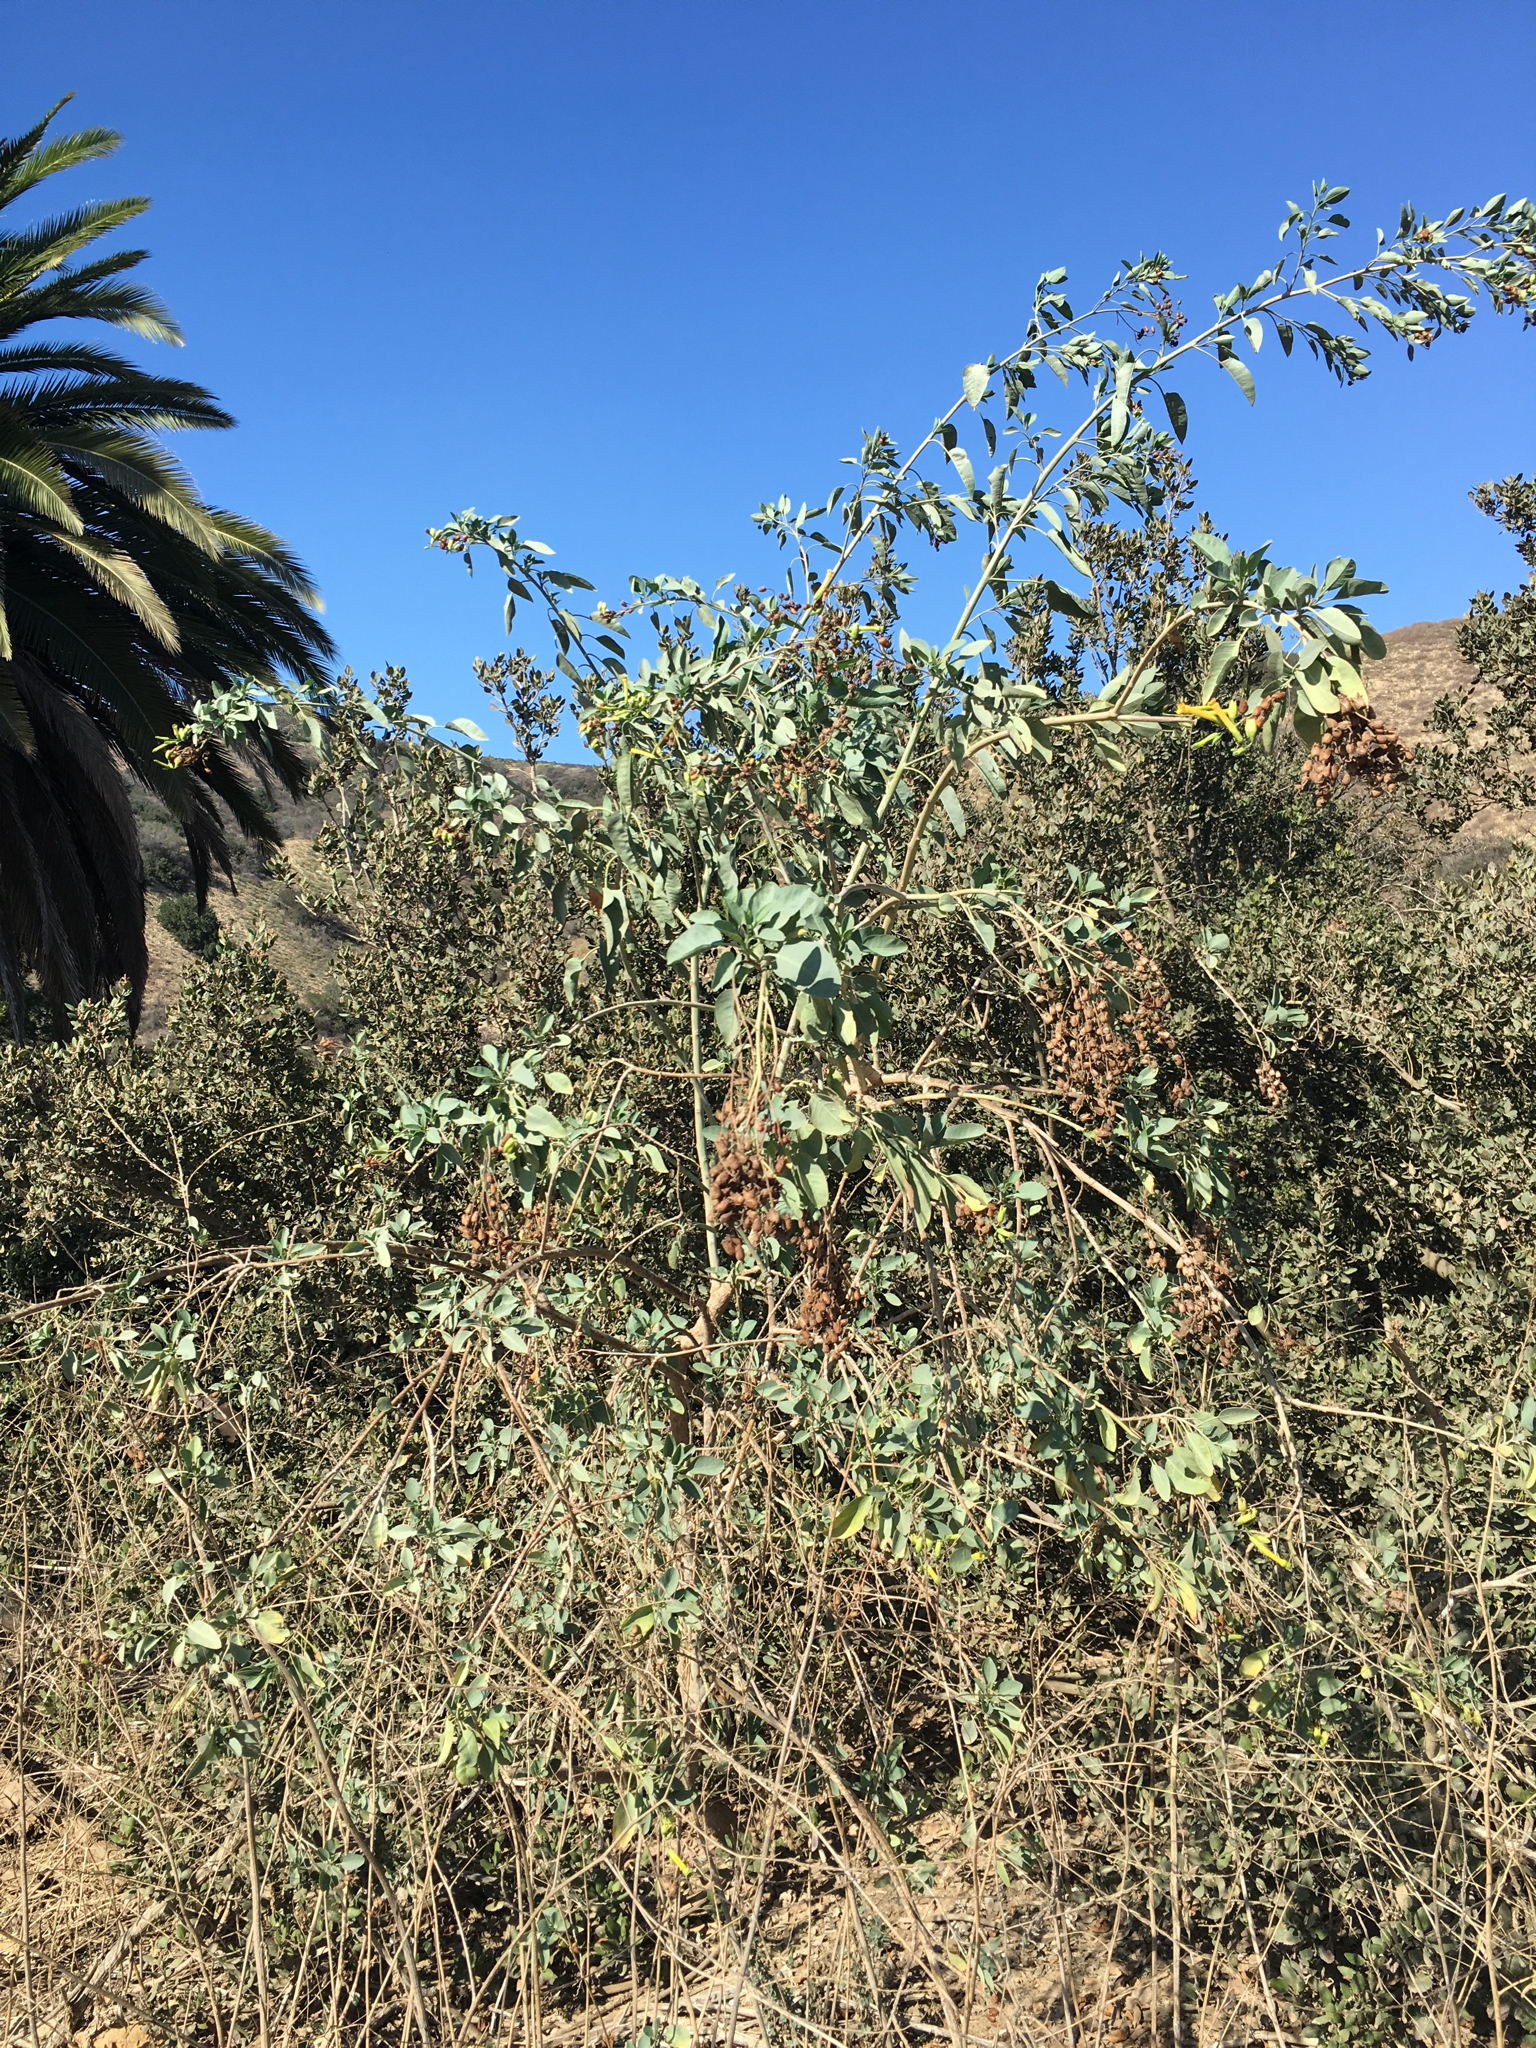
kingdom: Plantae
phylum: Tracheophyta
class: Magnoliopsida
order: Solanales
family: Solanaceae
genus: Nicotiana
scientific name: Nicotiana glauca
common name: Tree tobacco
